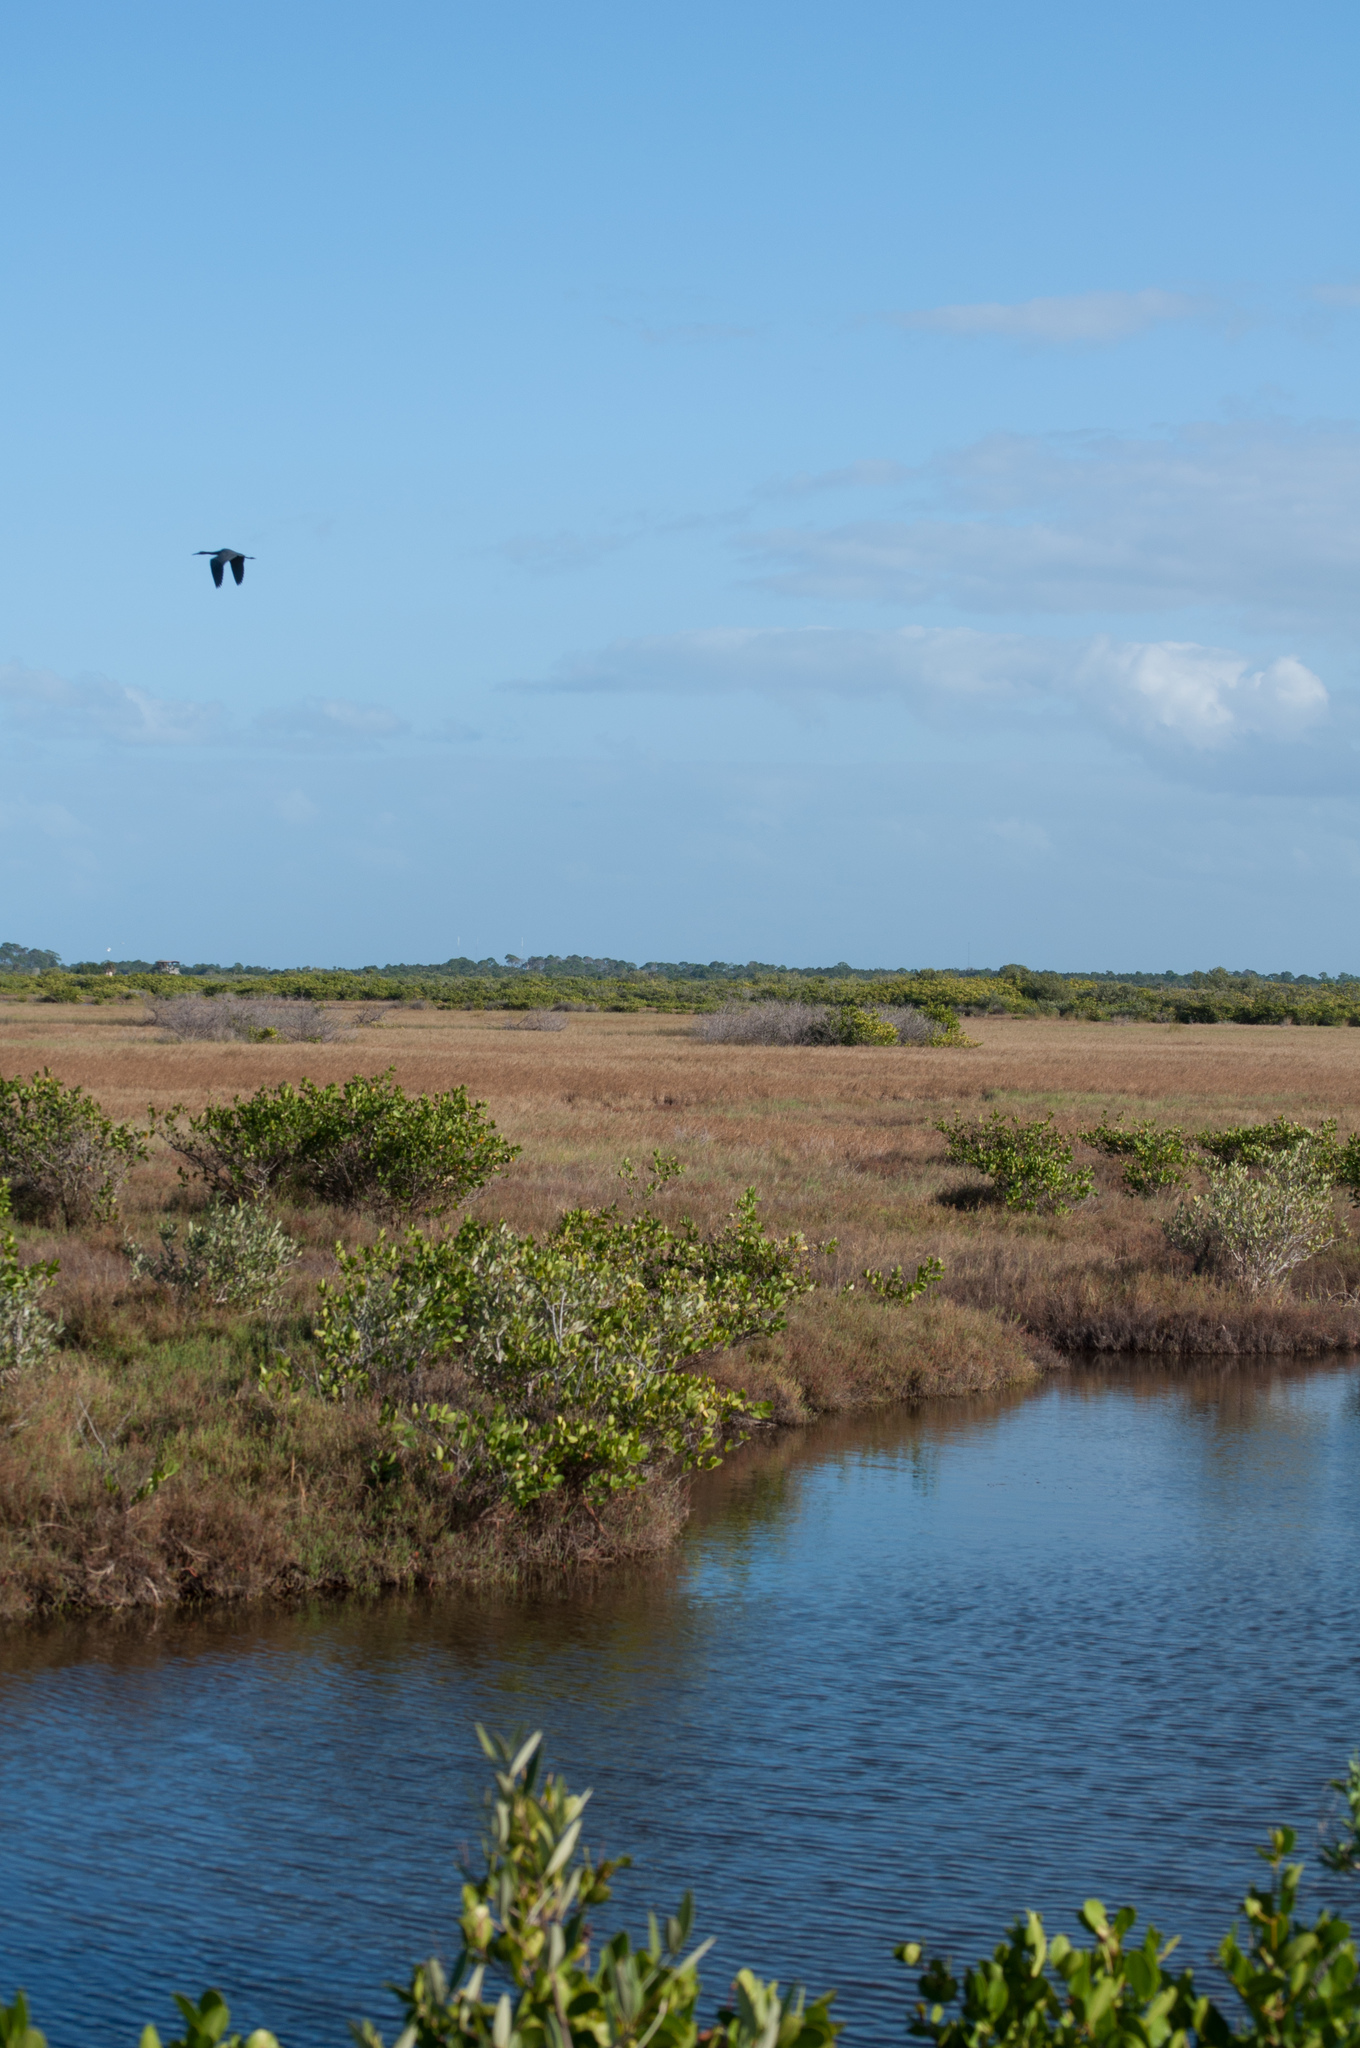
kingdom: Animalia
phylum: Chordata
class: Aves
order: Gruiformes
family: Gruidae
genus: Grus
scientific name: Grus canadensis
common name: Sandhill crane
